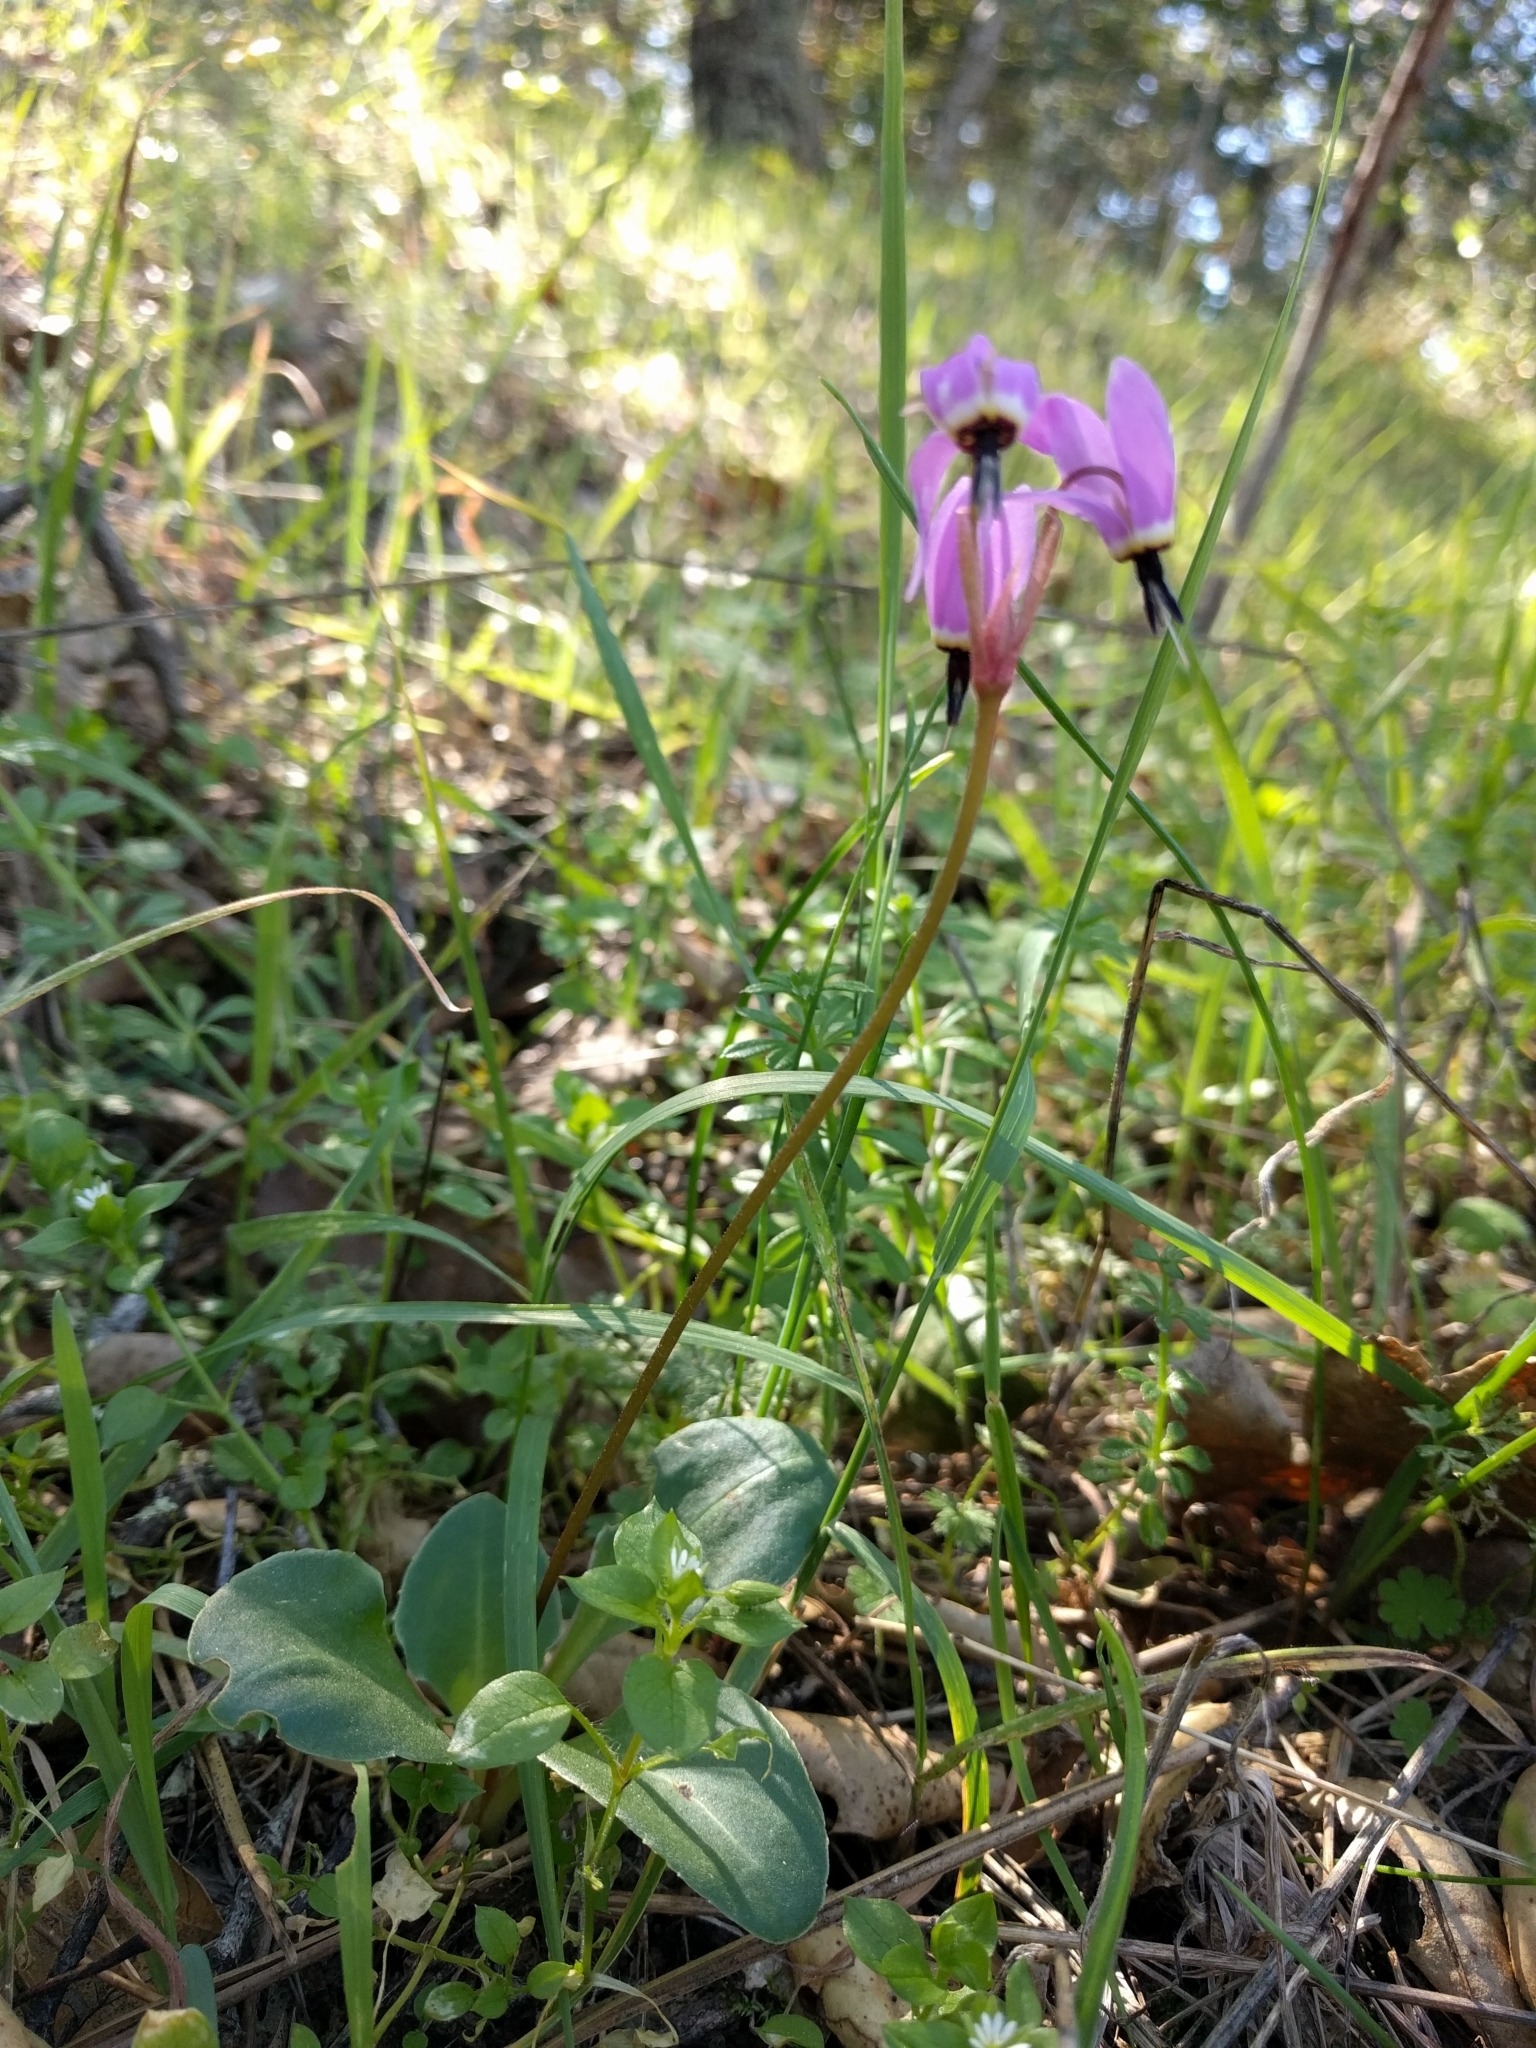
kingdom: Plantae
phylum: Tracheophyta
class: Magnoliopsida
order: Ericales
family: Primulaceae
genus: Dodecatheon
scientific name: Dodecatheon hendersonii
